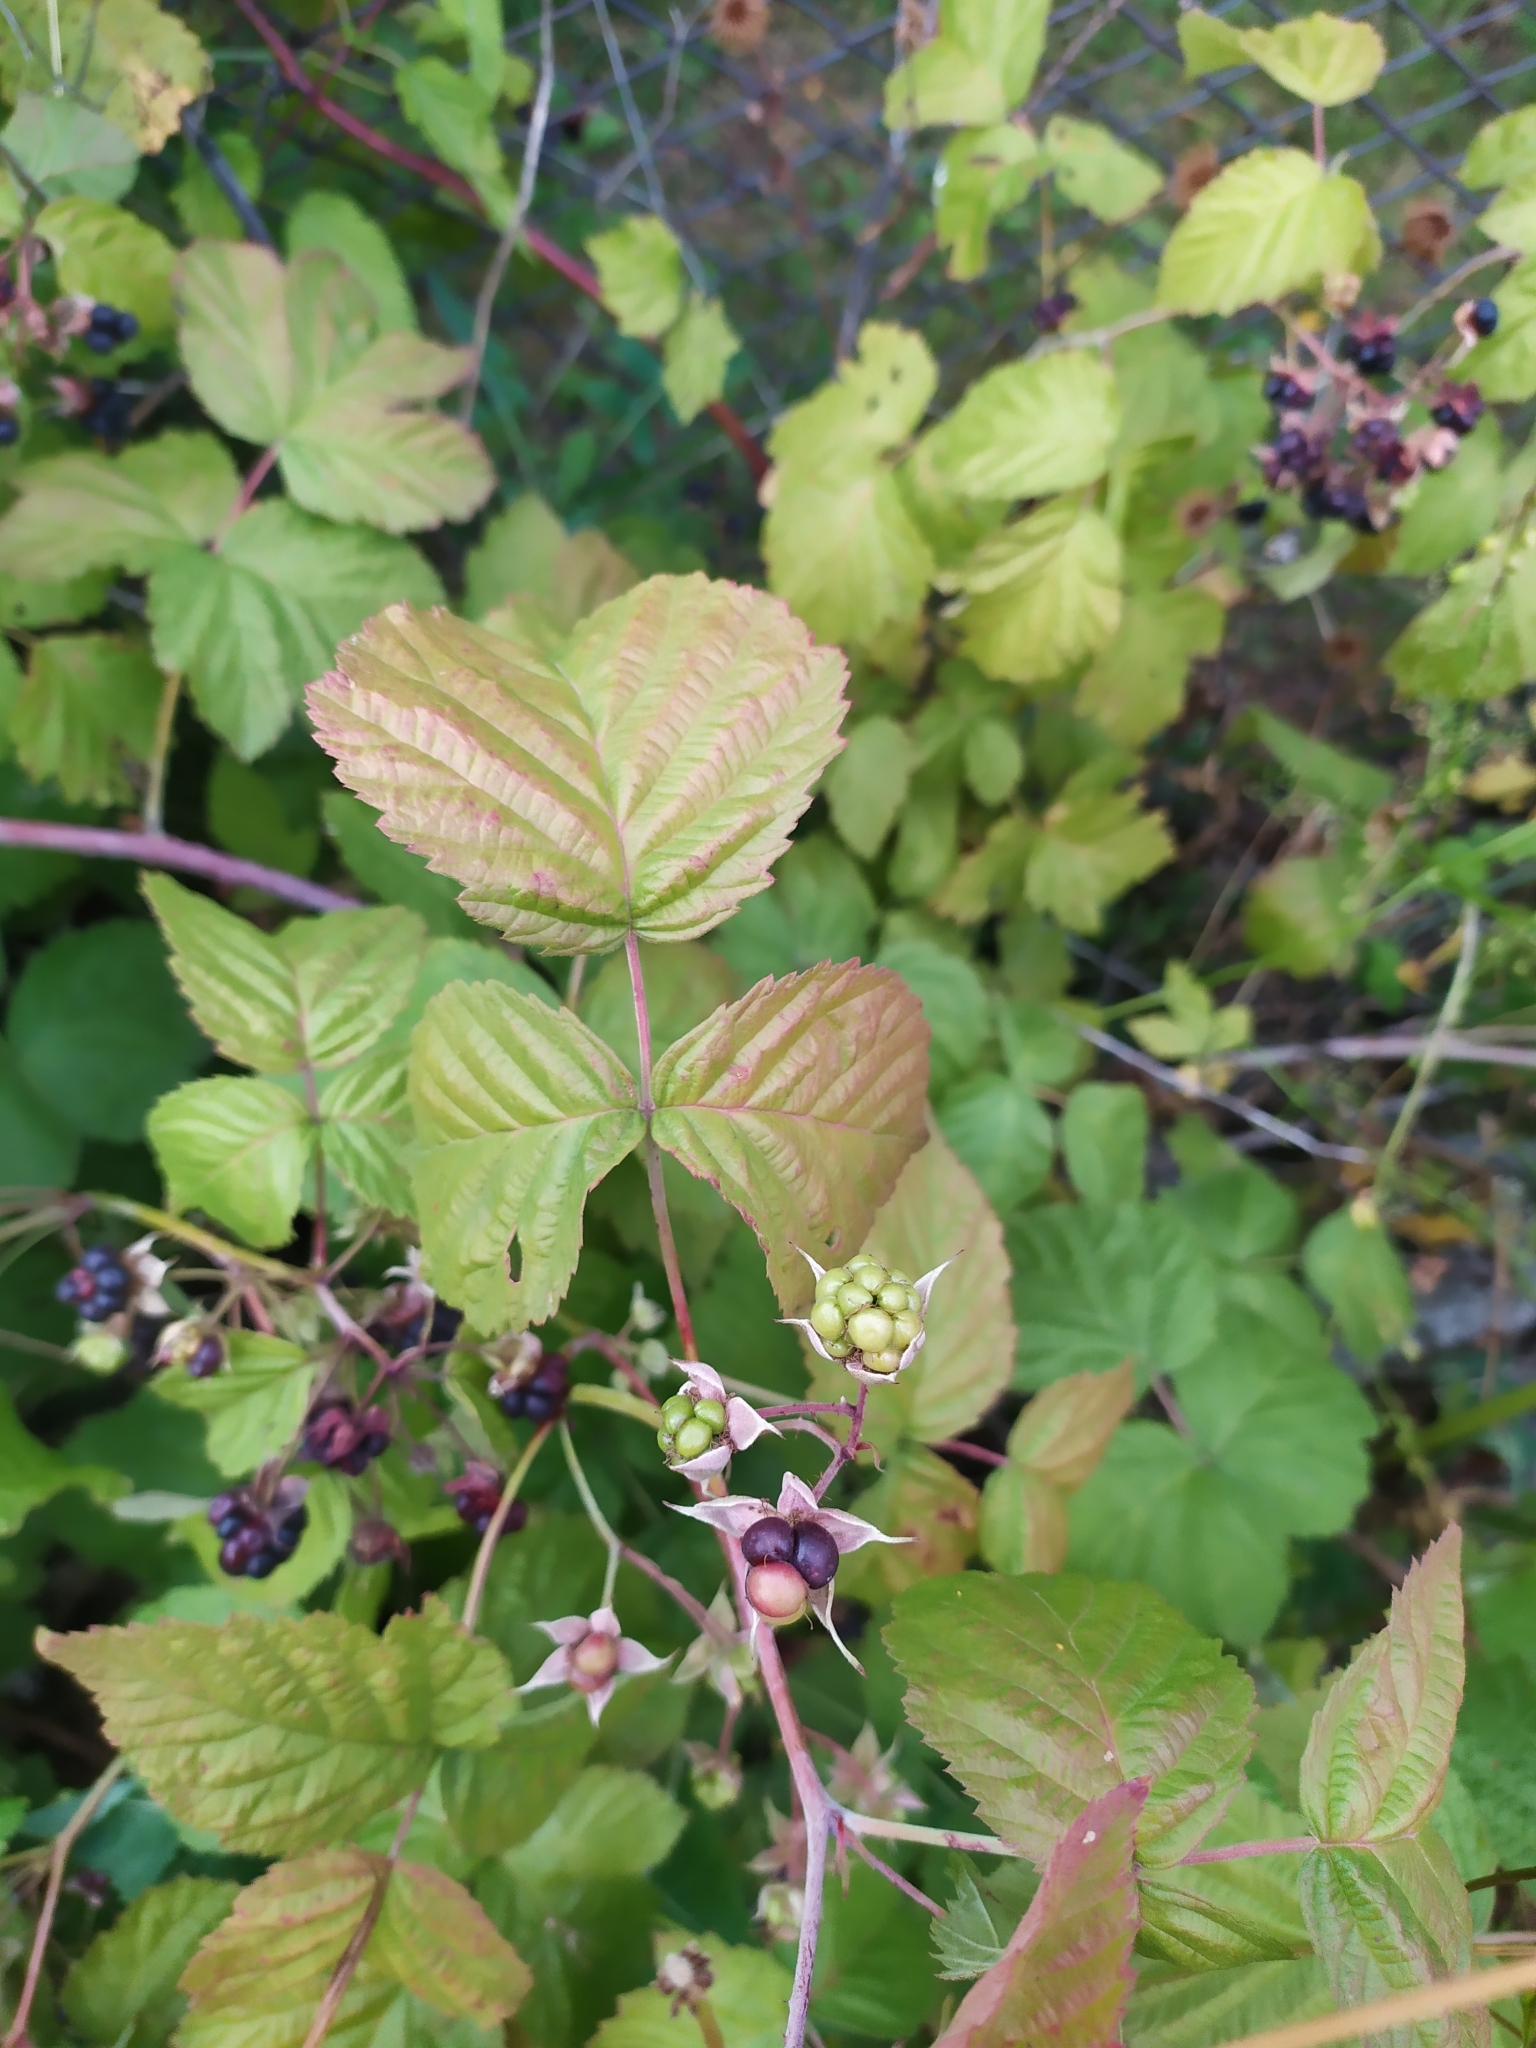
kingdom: Plantae
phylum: Tracheophyta
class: Magnoliopsida
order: Rosales
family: Rosaceae
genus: Rubus
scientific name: Rubus caesius
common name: Dewberry
